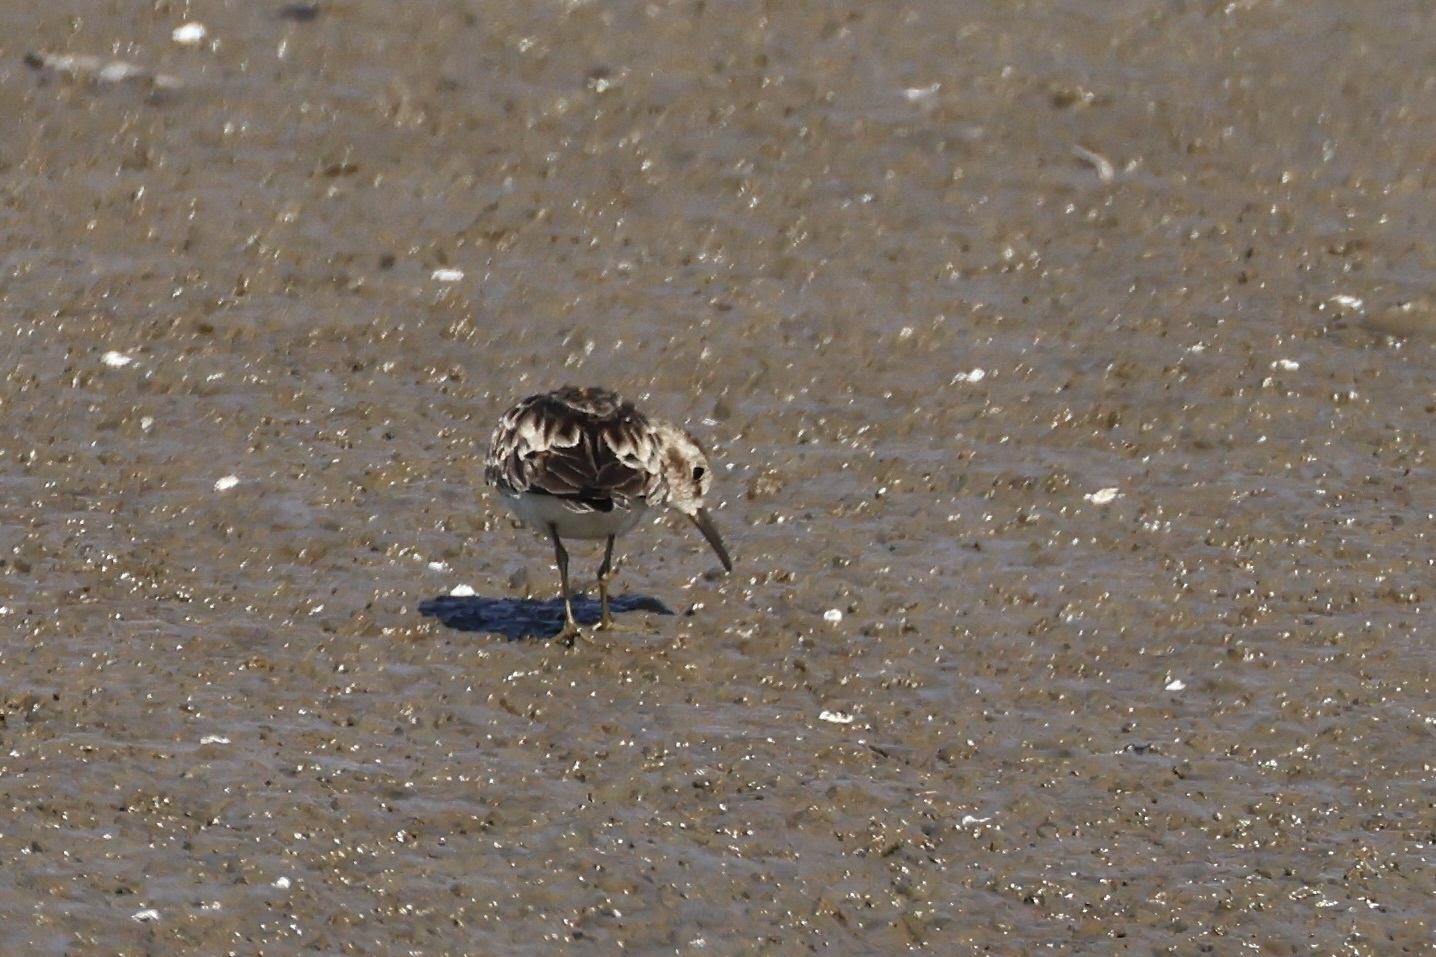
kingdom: Animalia
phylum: Chordata
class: Aves
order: Charadriiformes
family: Scolopacidae
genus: Calidris
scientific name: Calidris minutilla
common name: Least sandpiper
